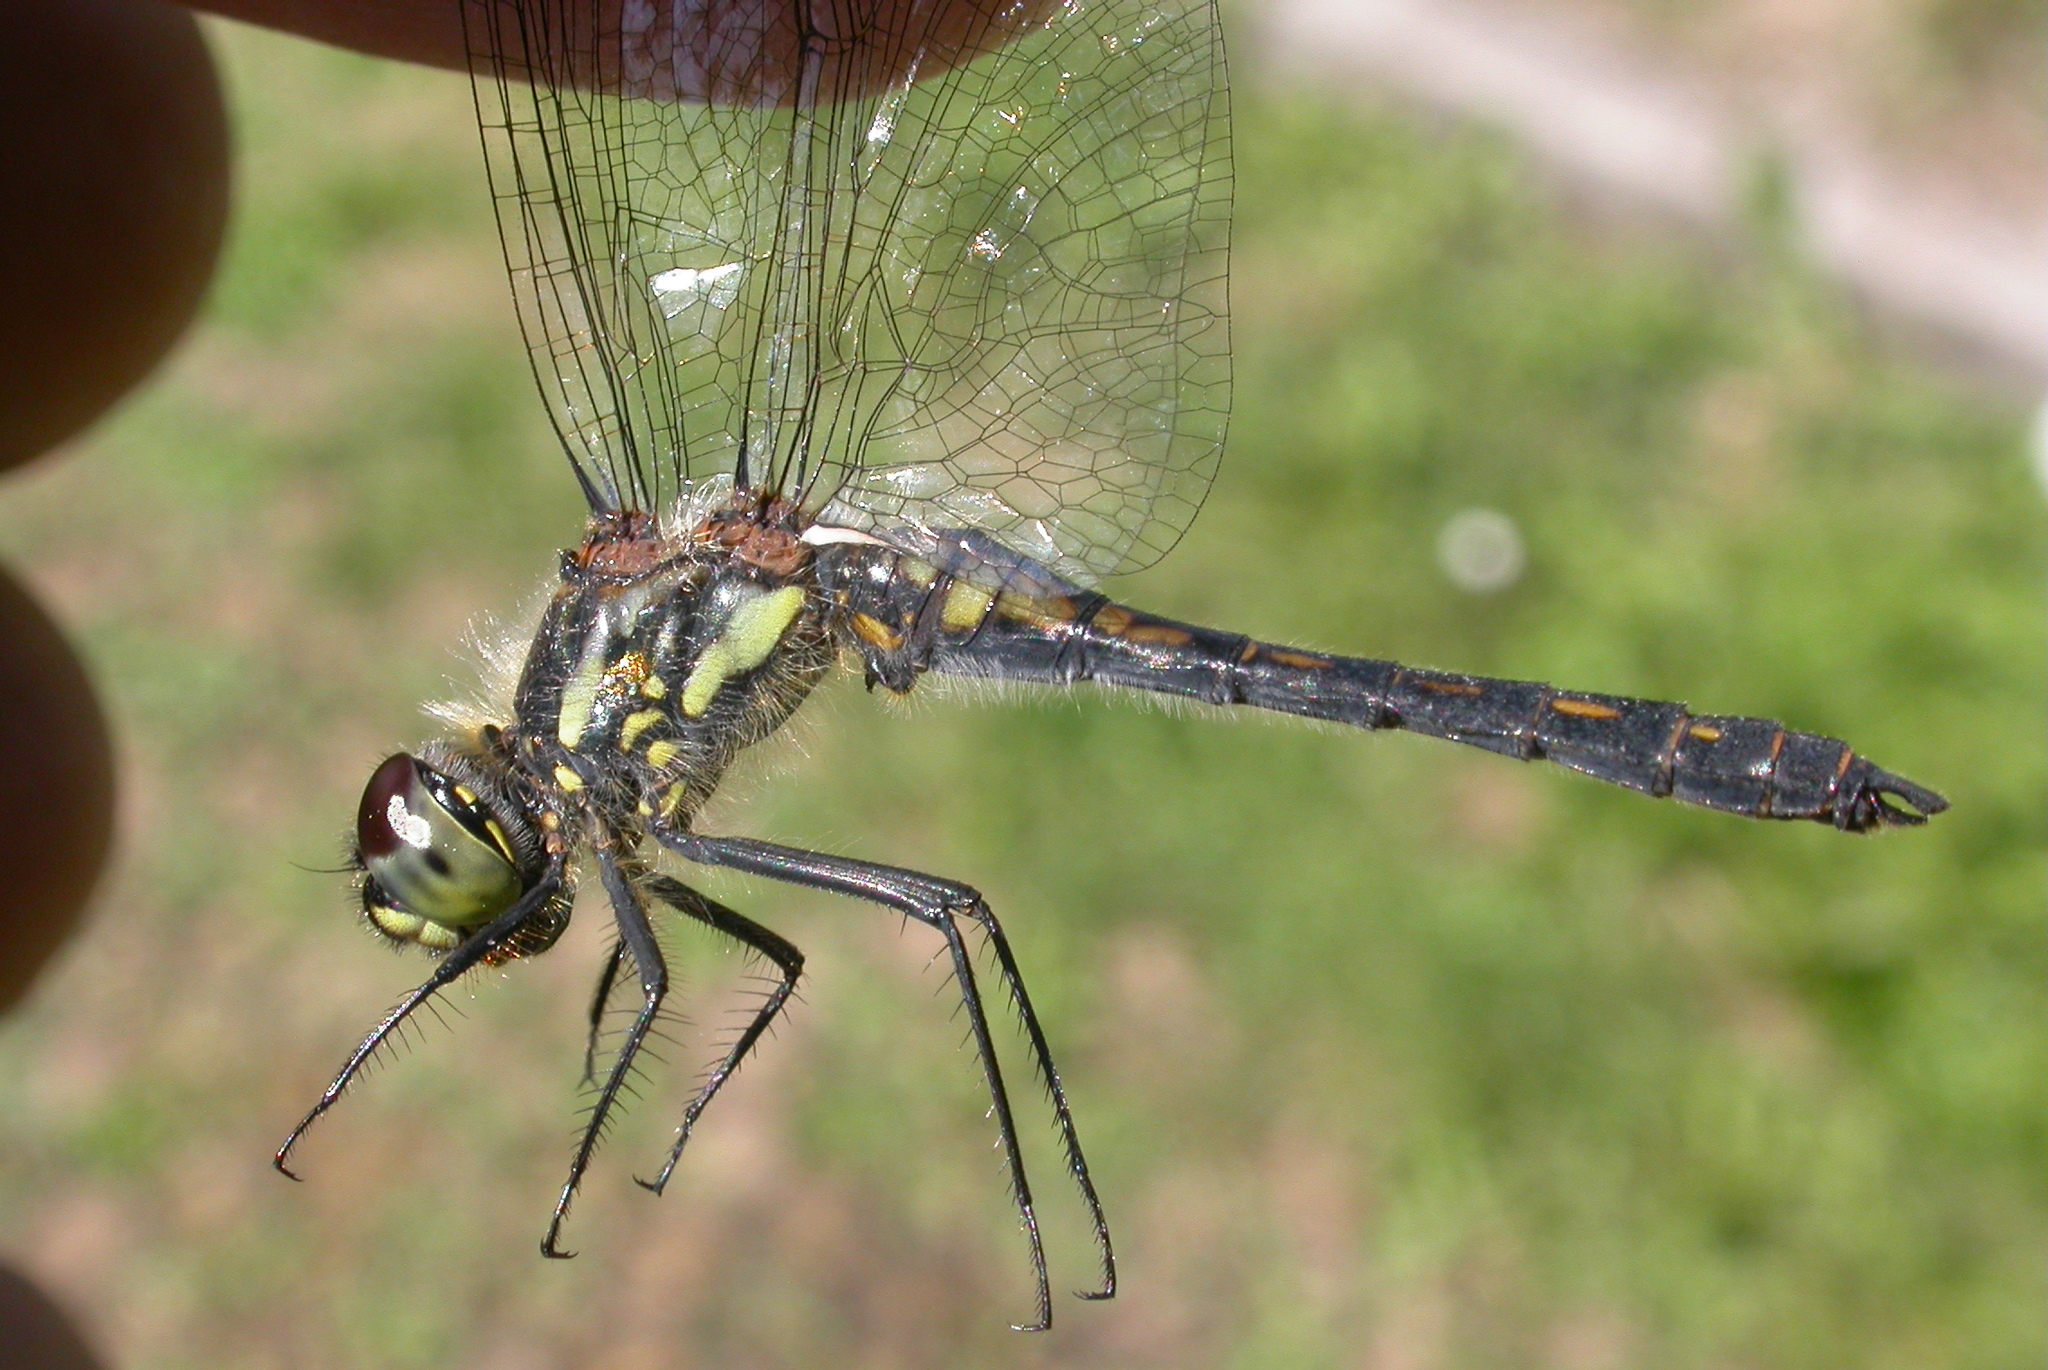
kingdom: Animalia
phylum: Arthropoda
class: Insecta
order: Odonata
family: Libellulidae
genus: Sympetrum
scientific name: Sympetrum danae
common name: Black darter
